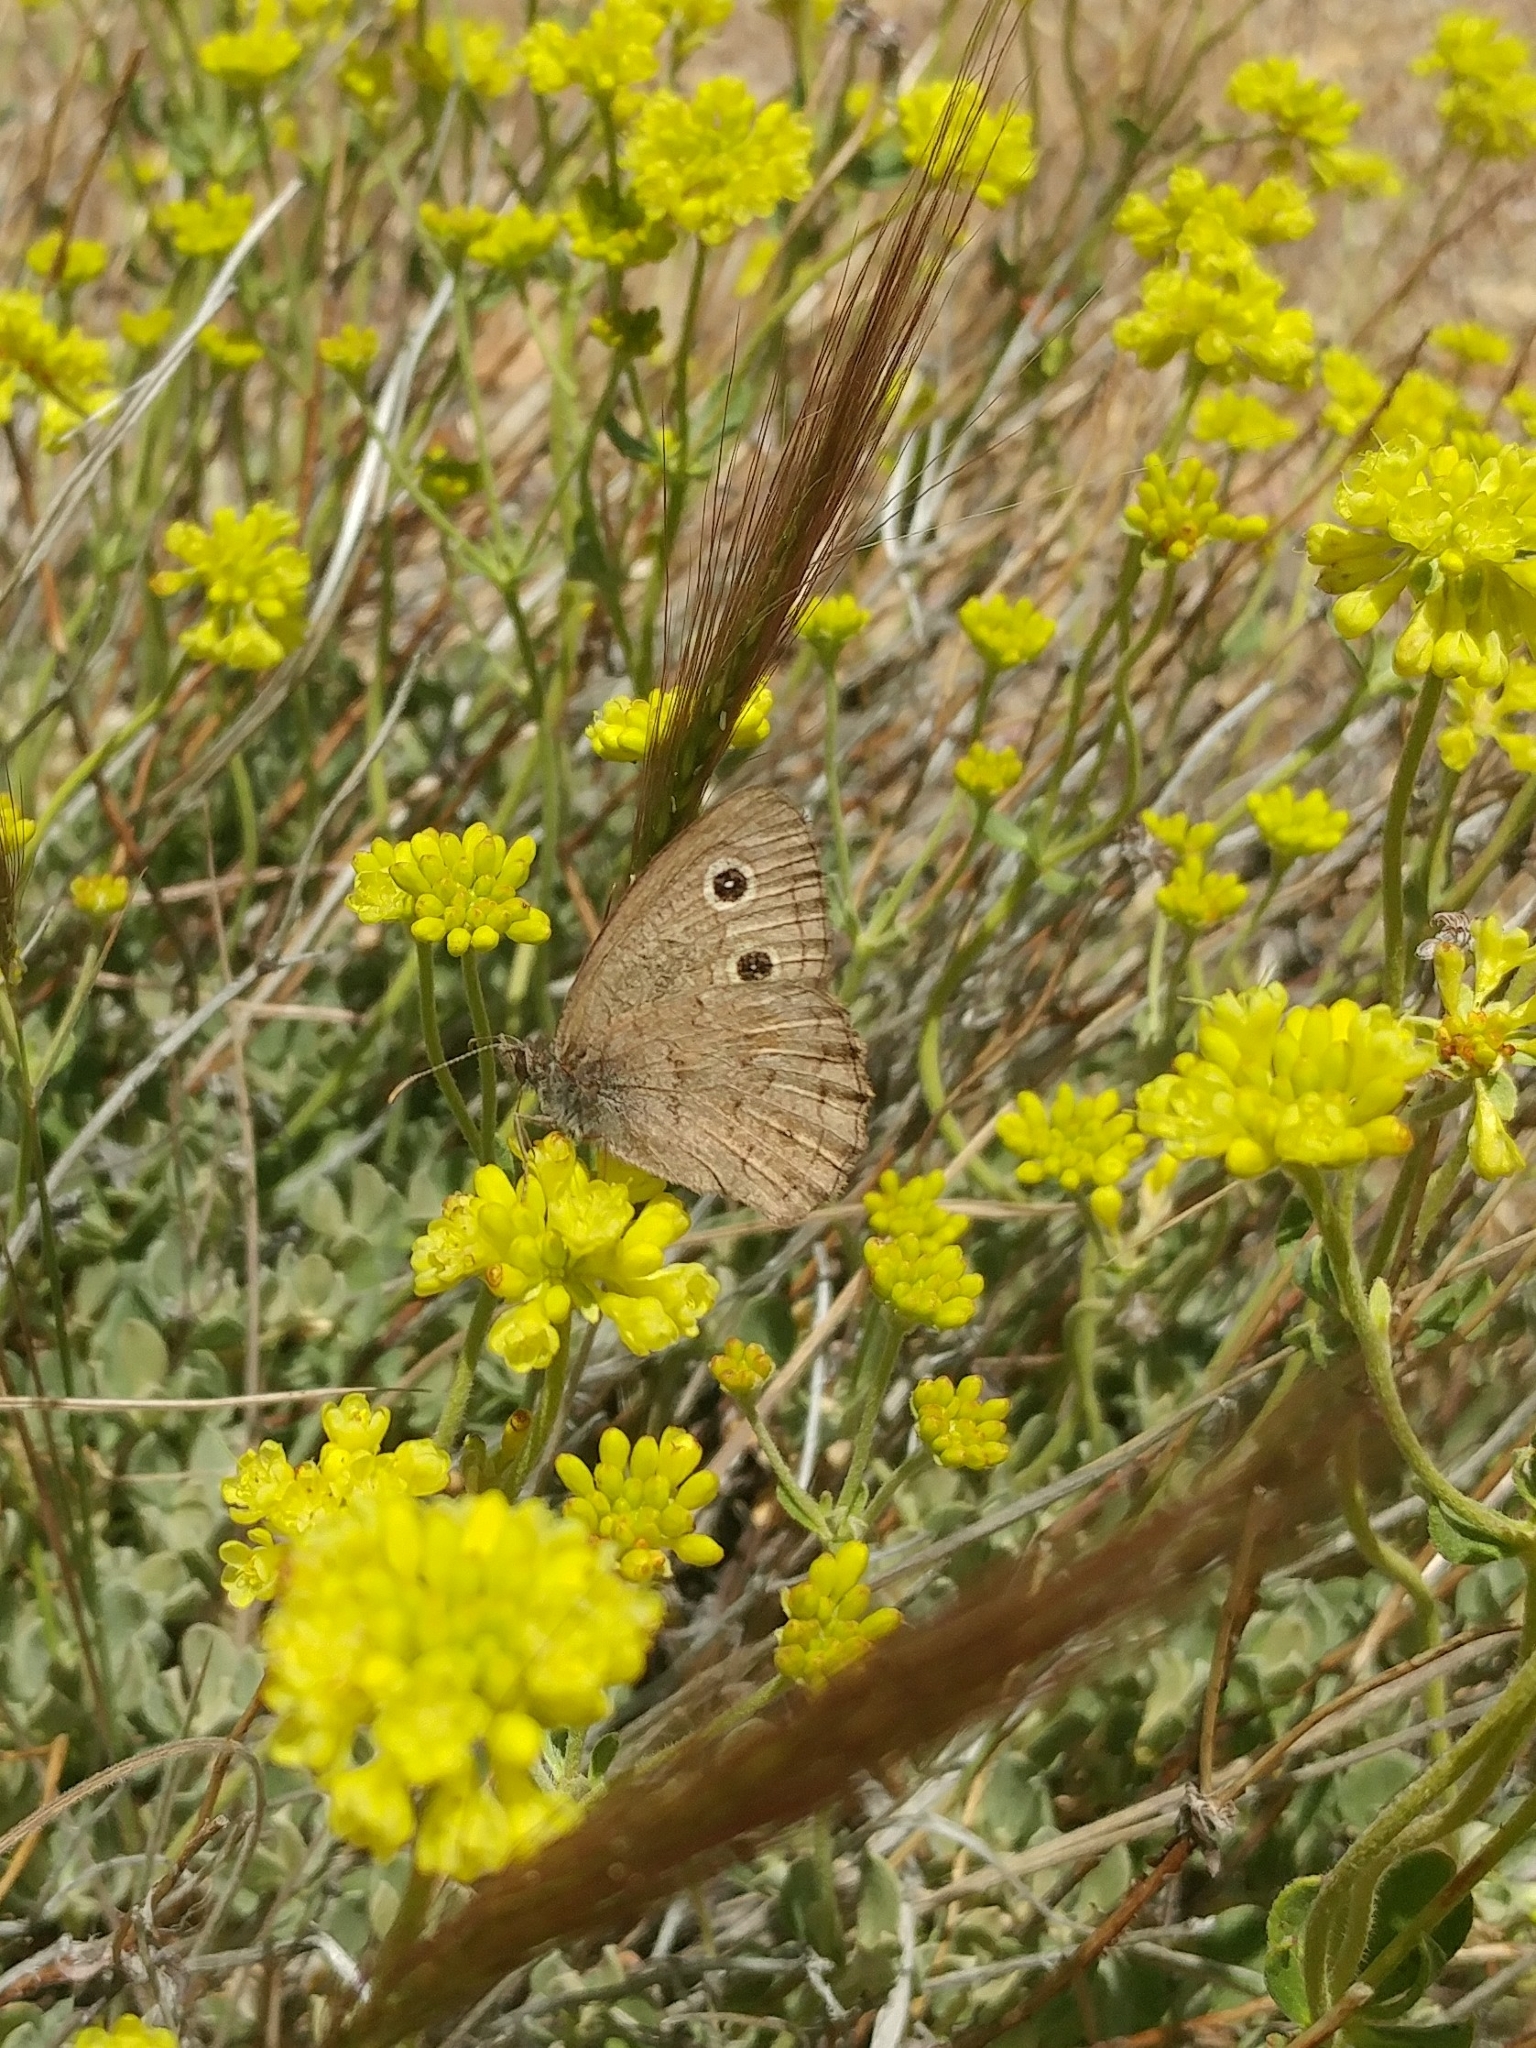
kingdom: Animalia
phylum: Arthropoda
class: Insecta
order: Lepidoptera
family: Nymphalidae
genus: Cercyonis
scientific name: Cercyonis sthenele
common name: Great basin wood-nymph
